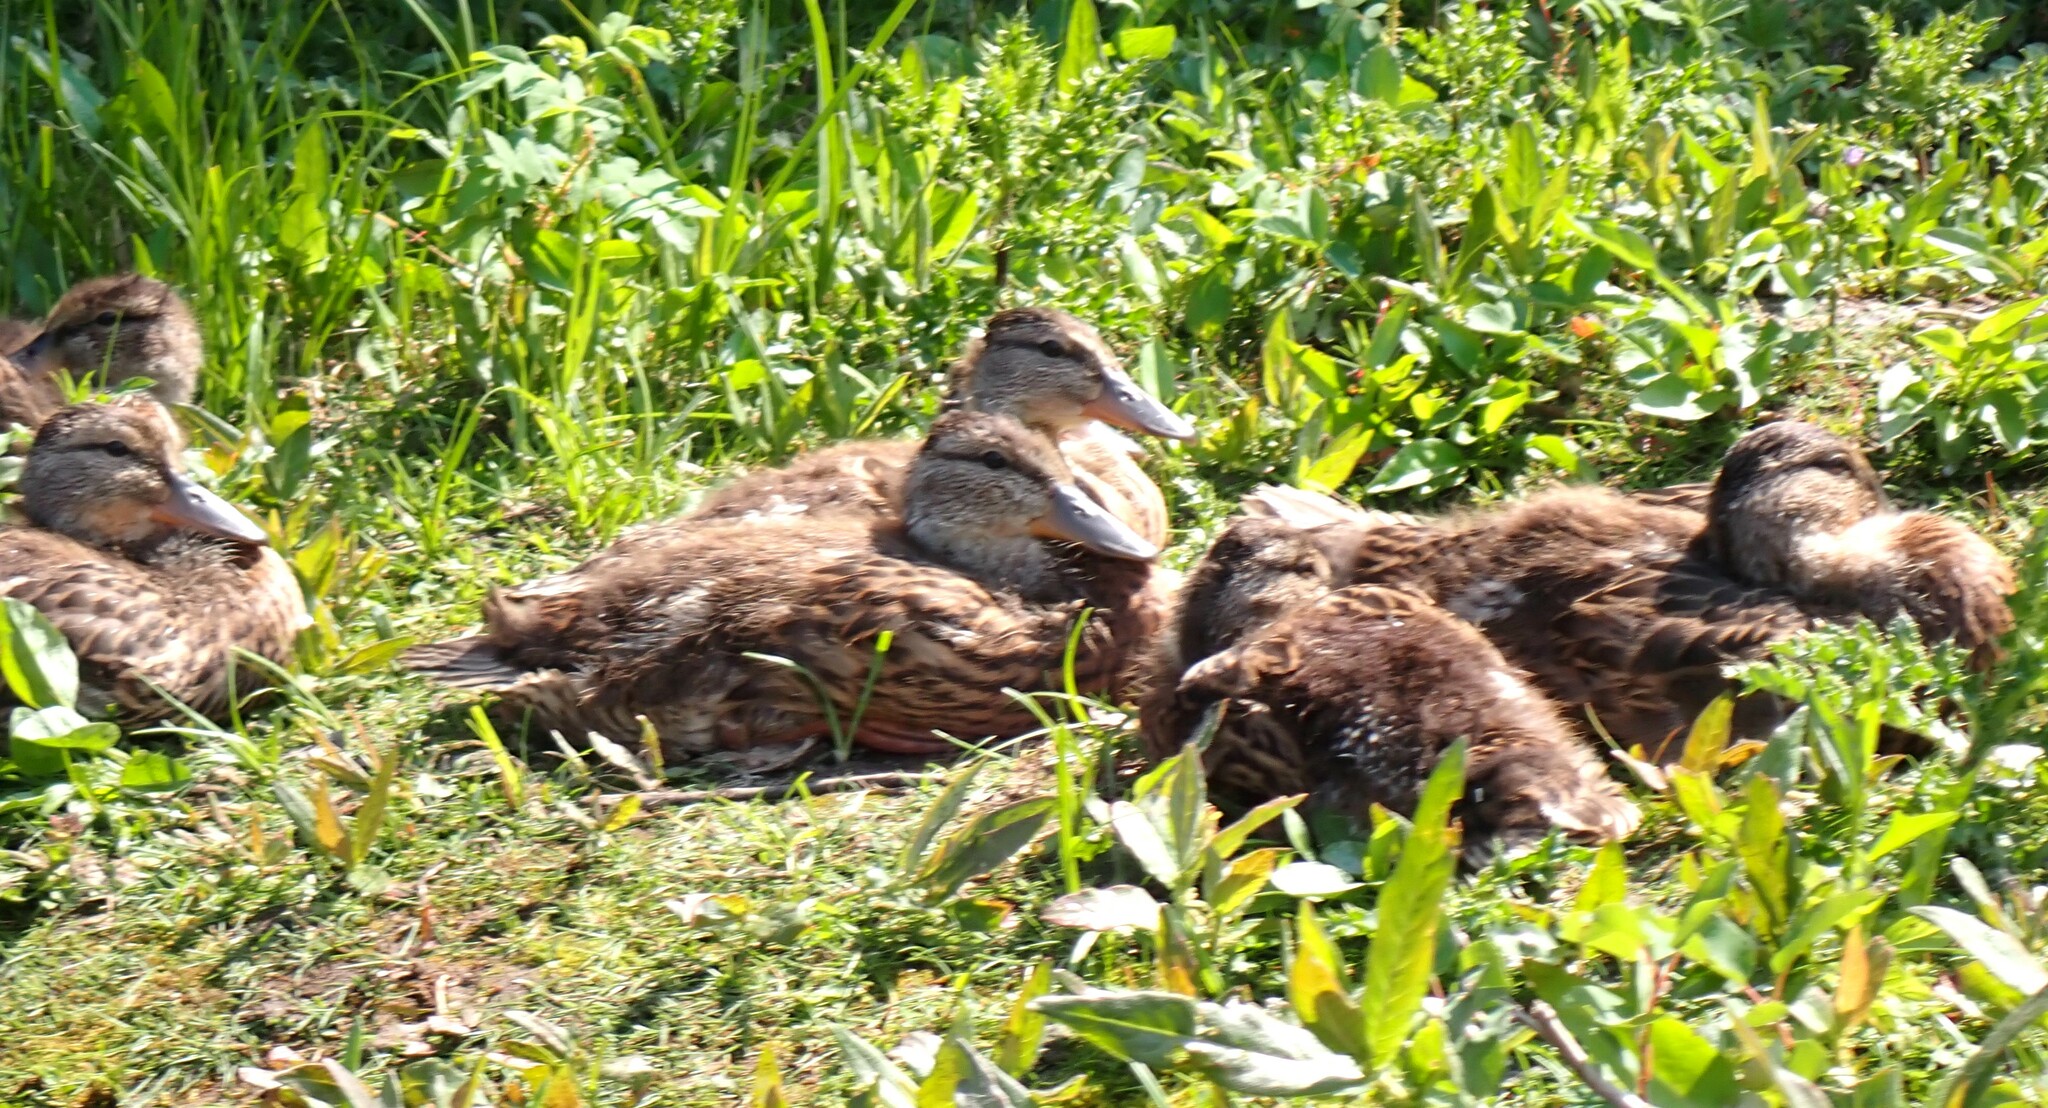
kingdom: Animalia
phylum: Chordata
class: Aves
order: Anseriformes
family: Anatidae
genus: Anas
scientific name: Anas platyrhynchos
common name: Mallard
